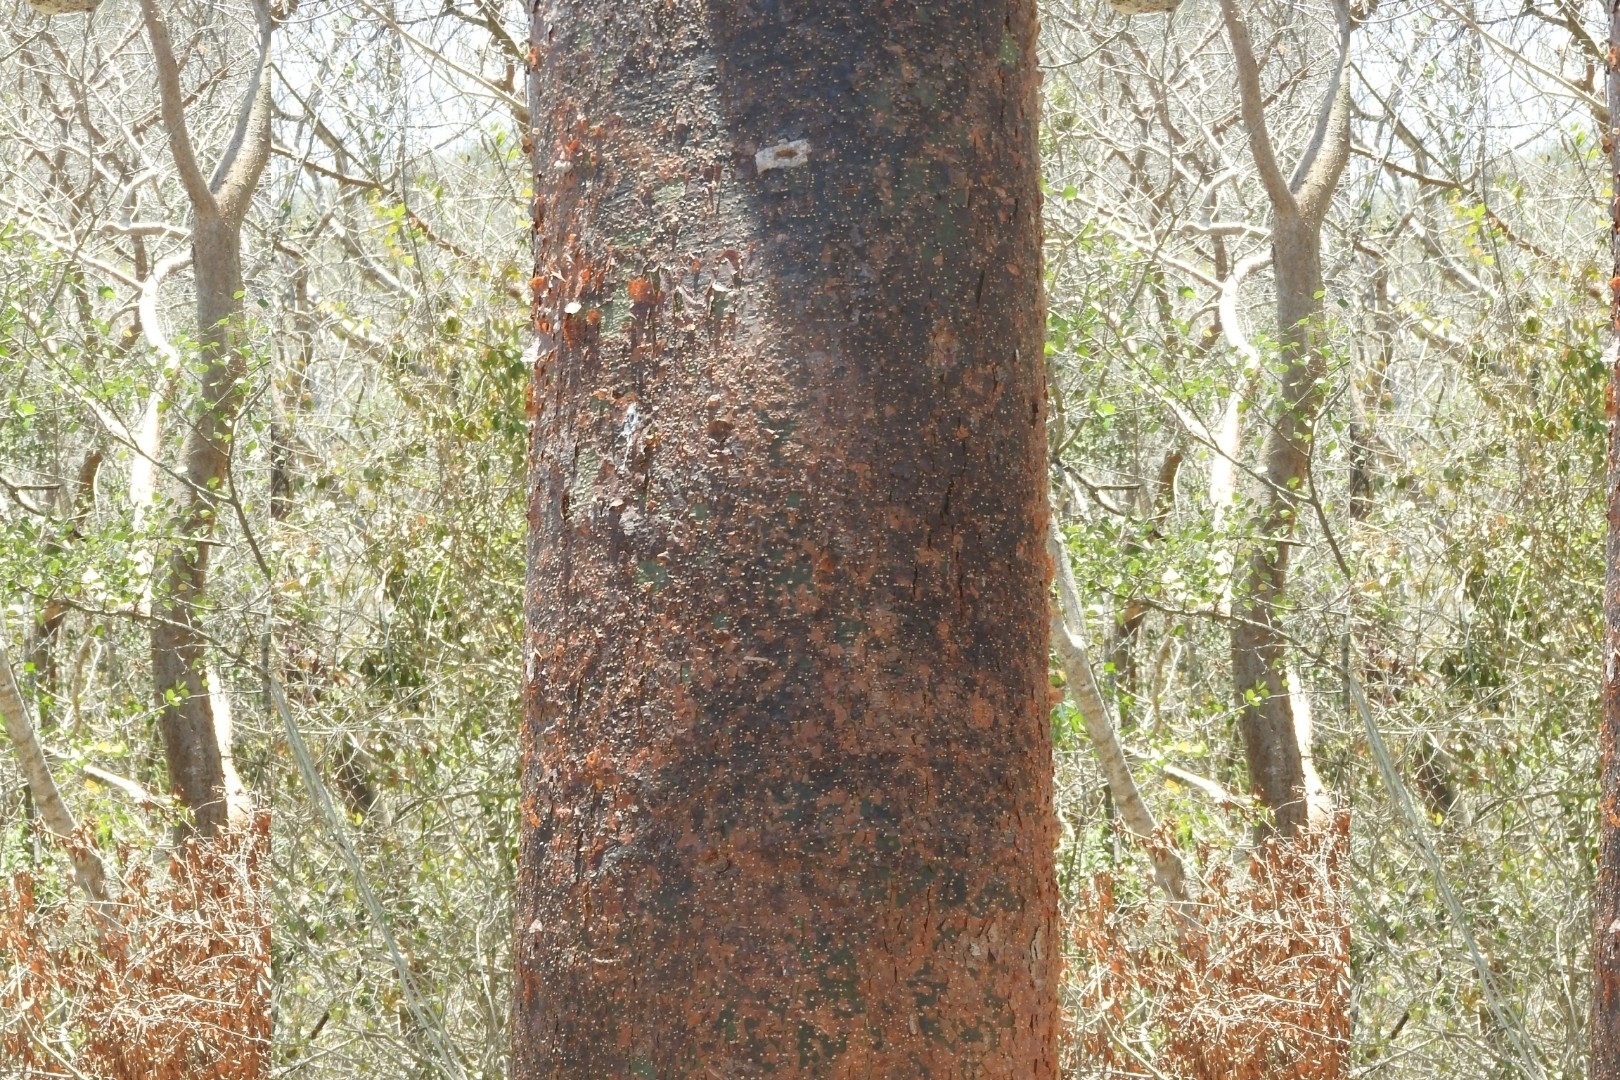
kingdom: Plantae
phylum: Tracheophyta
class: Magnoliopsida
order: Sapindales
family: Burseraceae
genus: Bursera
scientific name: Bursera simaruba
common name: Turpentine tree
